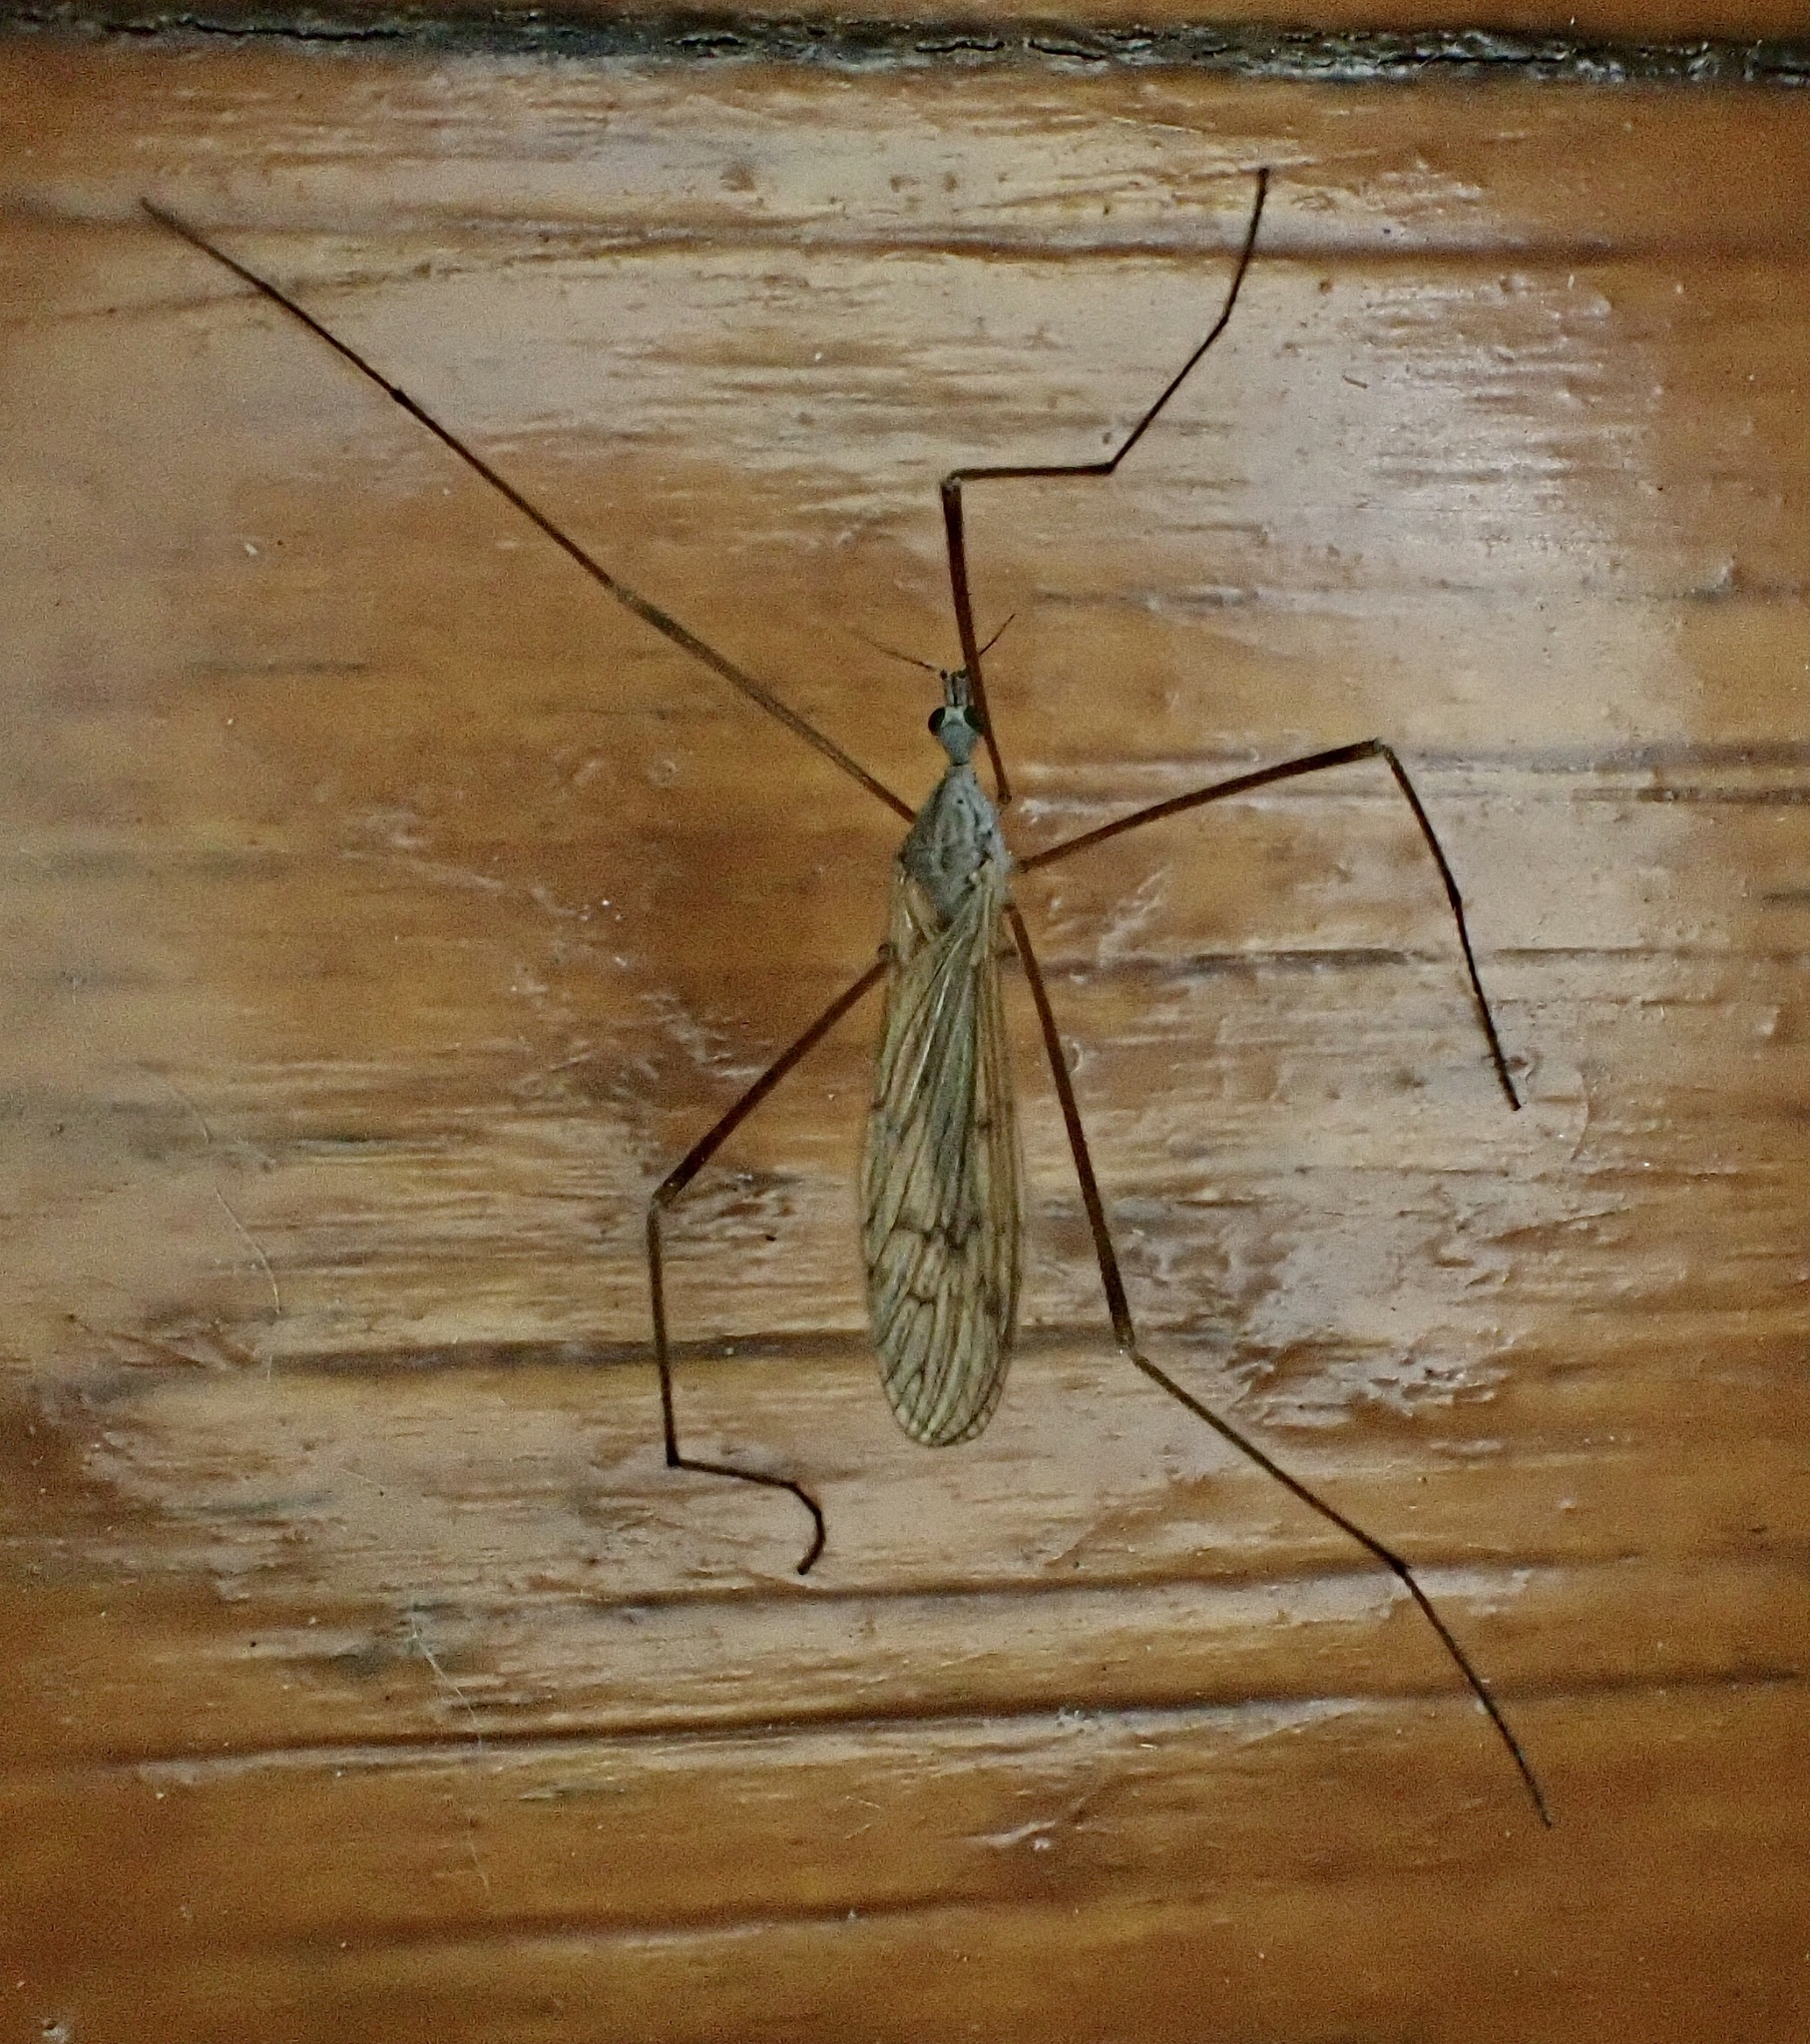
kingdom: Animalia
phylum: Arthropoda
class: Insecta
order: Diptera
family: Limoniidae
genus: Pseudolimnophila
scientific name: Pseudolimnophila luteipennis
